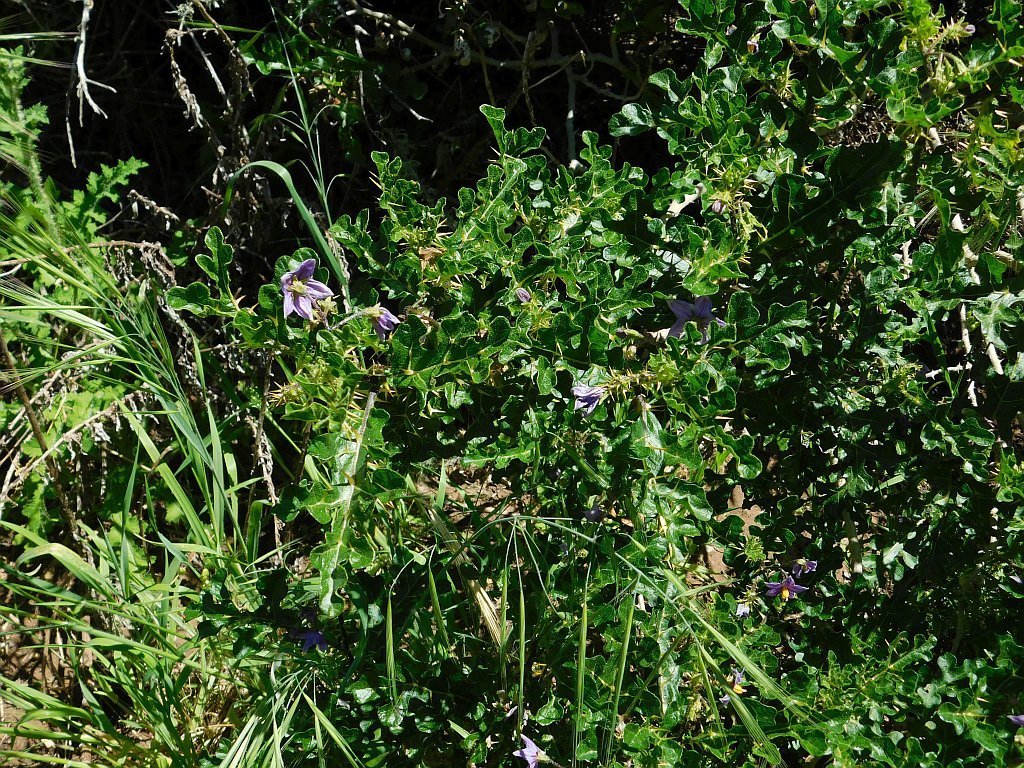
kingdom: Plantae
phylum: Tracheophyta
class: Magnoliopsida
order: Solanales
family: Solanaceae
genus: Solanum
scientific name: Solanum linnaeanum
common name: Nightshade
